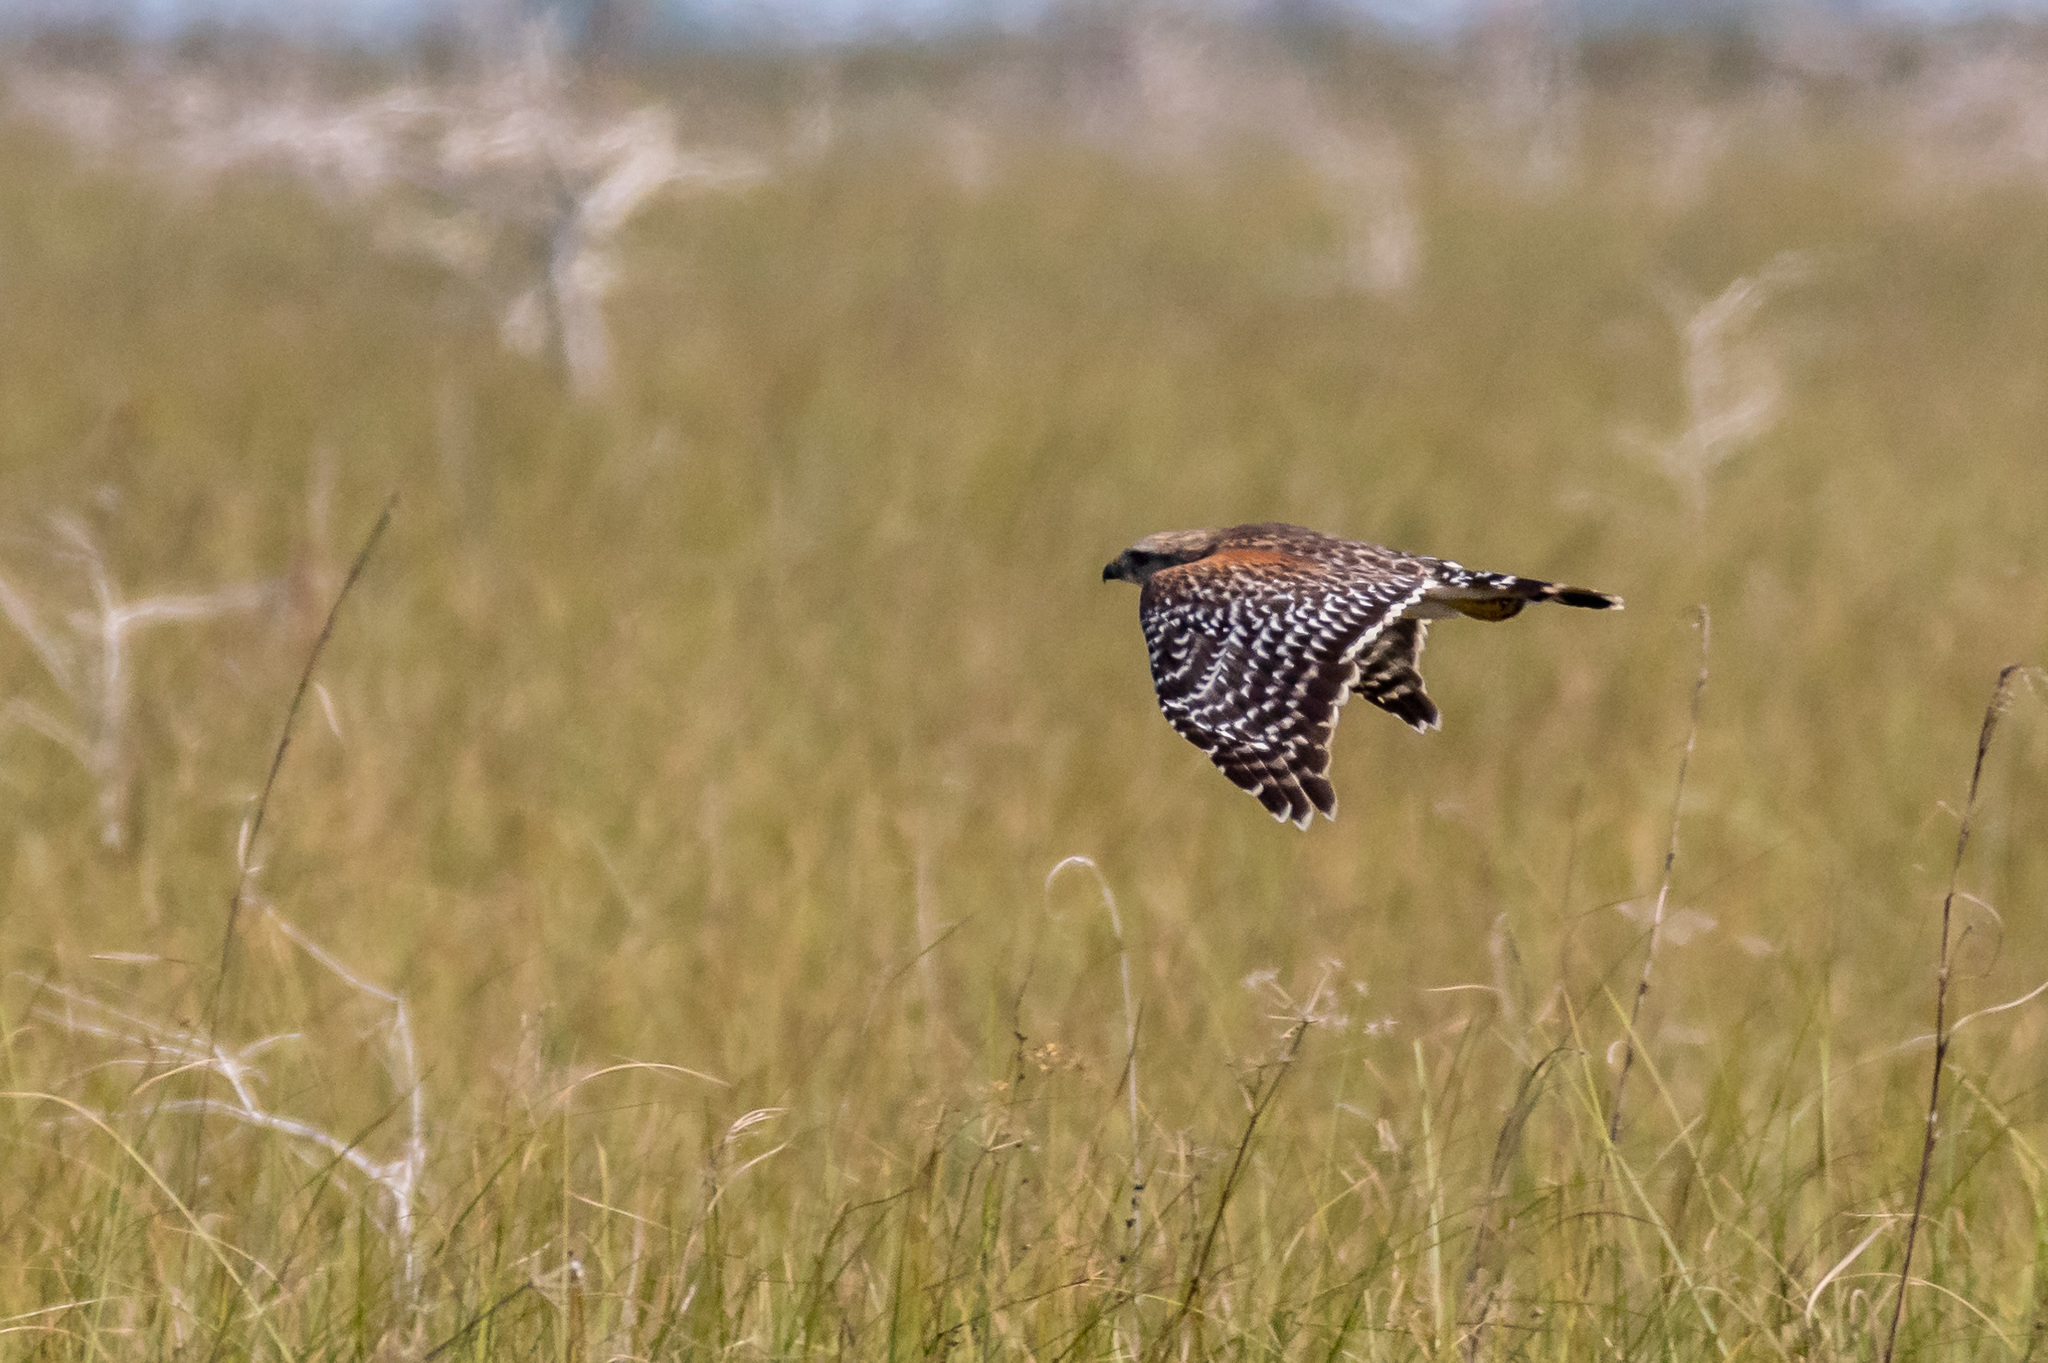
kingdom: Animalia
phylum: Chordata
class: Aves
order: Accipitriformes
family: Accipitridae
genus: Buteo
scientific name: Buteo lineatus
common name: Red-shouldered hawk
